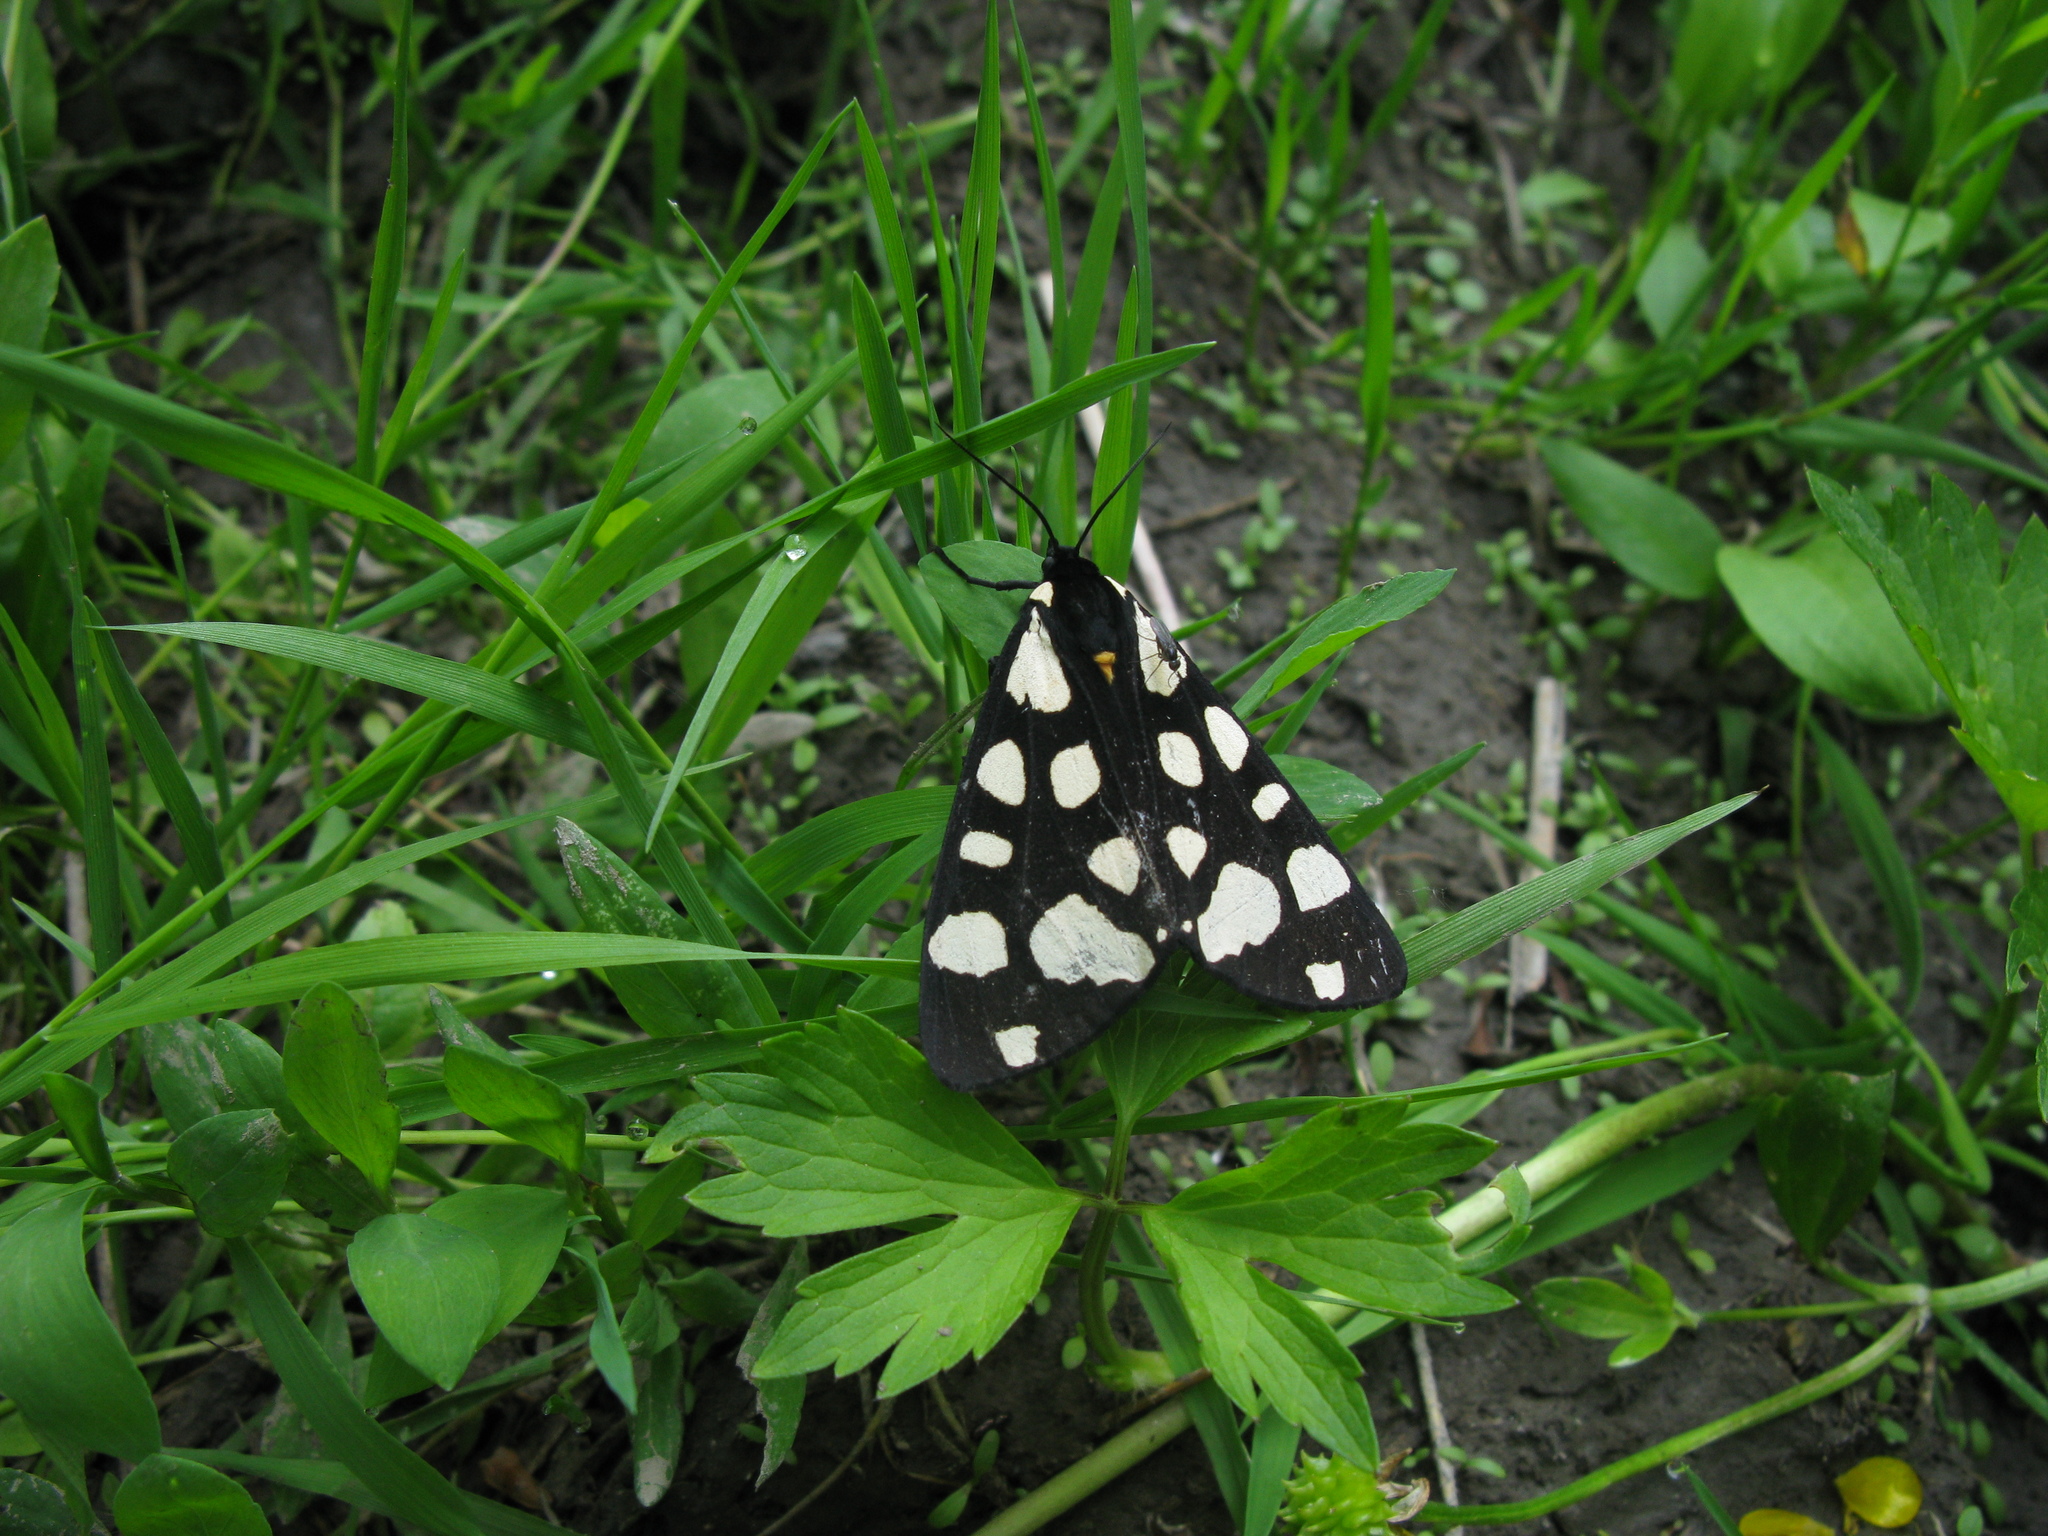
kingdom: Animalia
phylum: Arthropoda
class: Insecta
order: Lepidoptera
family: Erebidae
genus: Epicallia
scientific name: Epicallia villica
